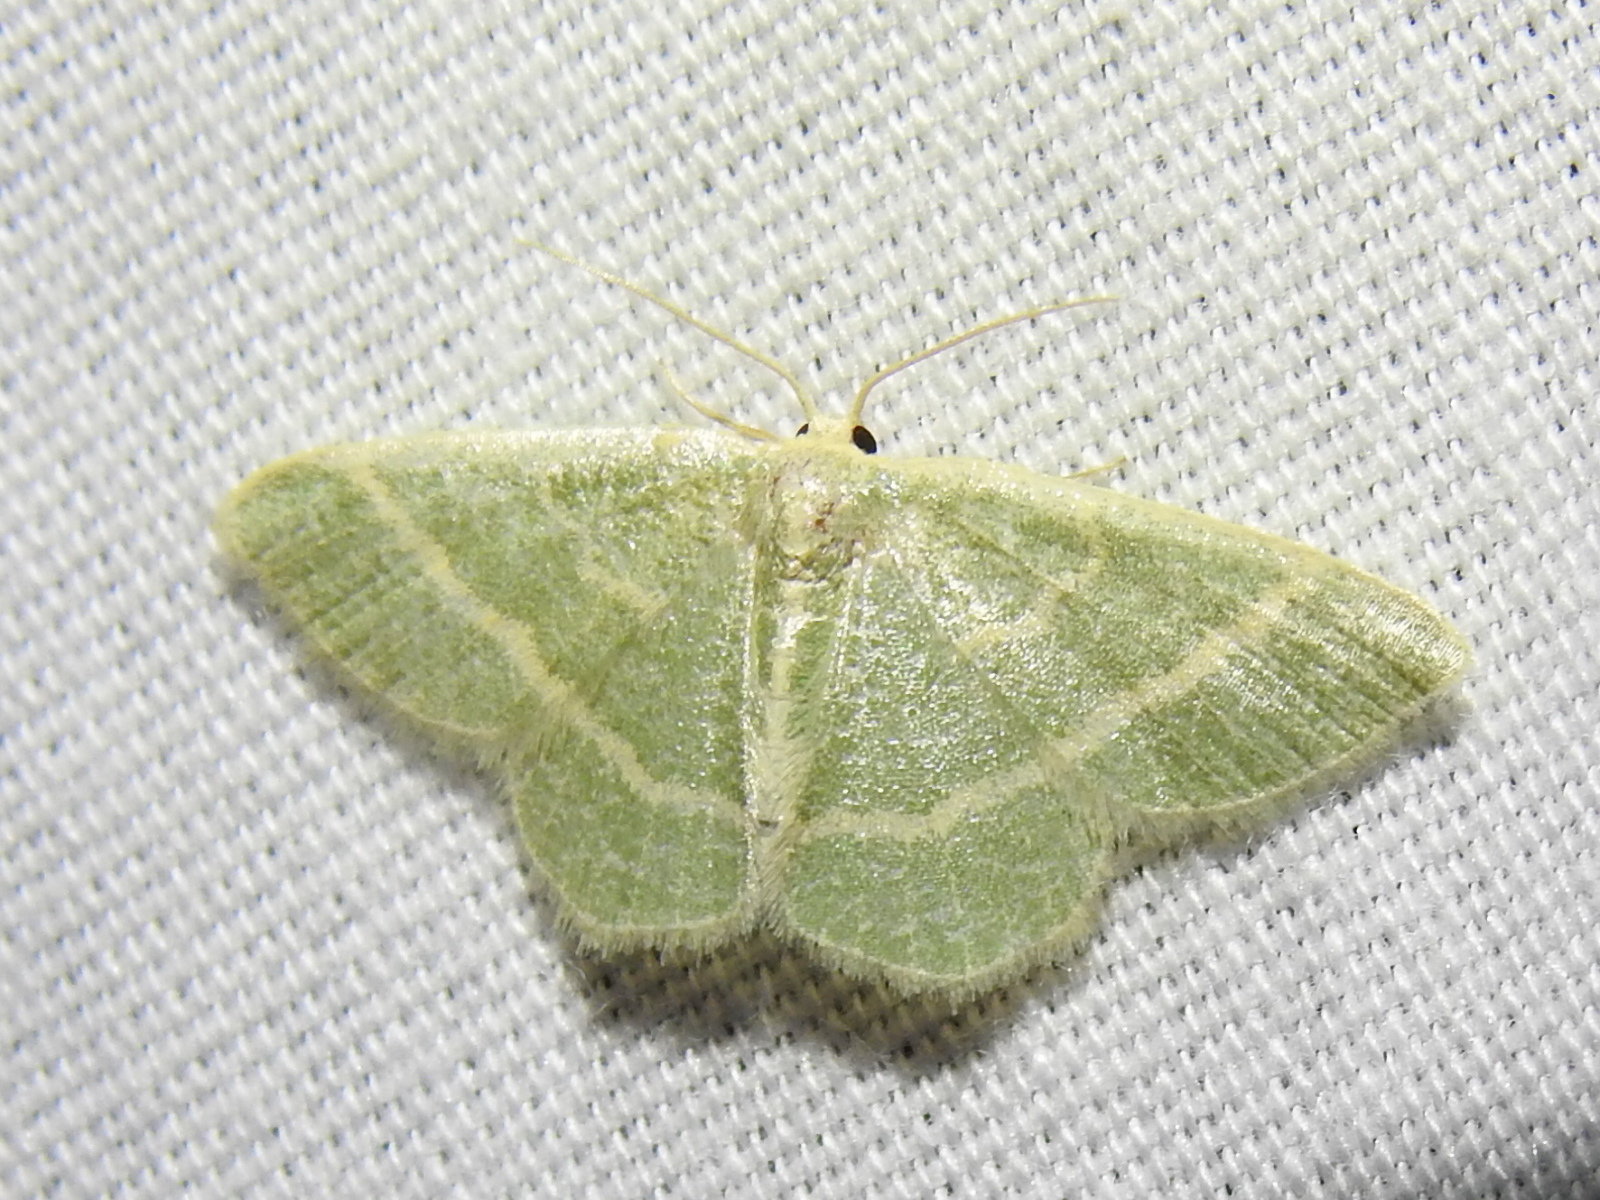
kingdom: Animalia
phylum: Arthropoda
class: Insecta
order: Lepidoptera
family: Geometridae
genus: Chlorochlamys
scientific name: Chlorochlamys chloroleucaria
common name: Blackberry looper
